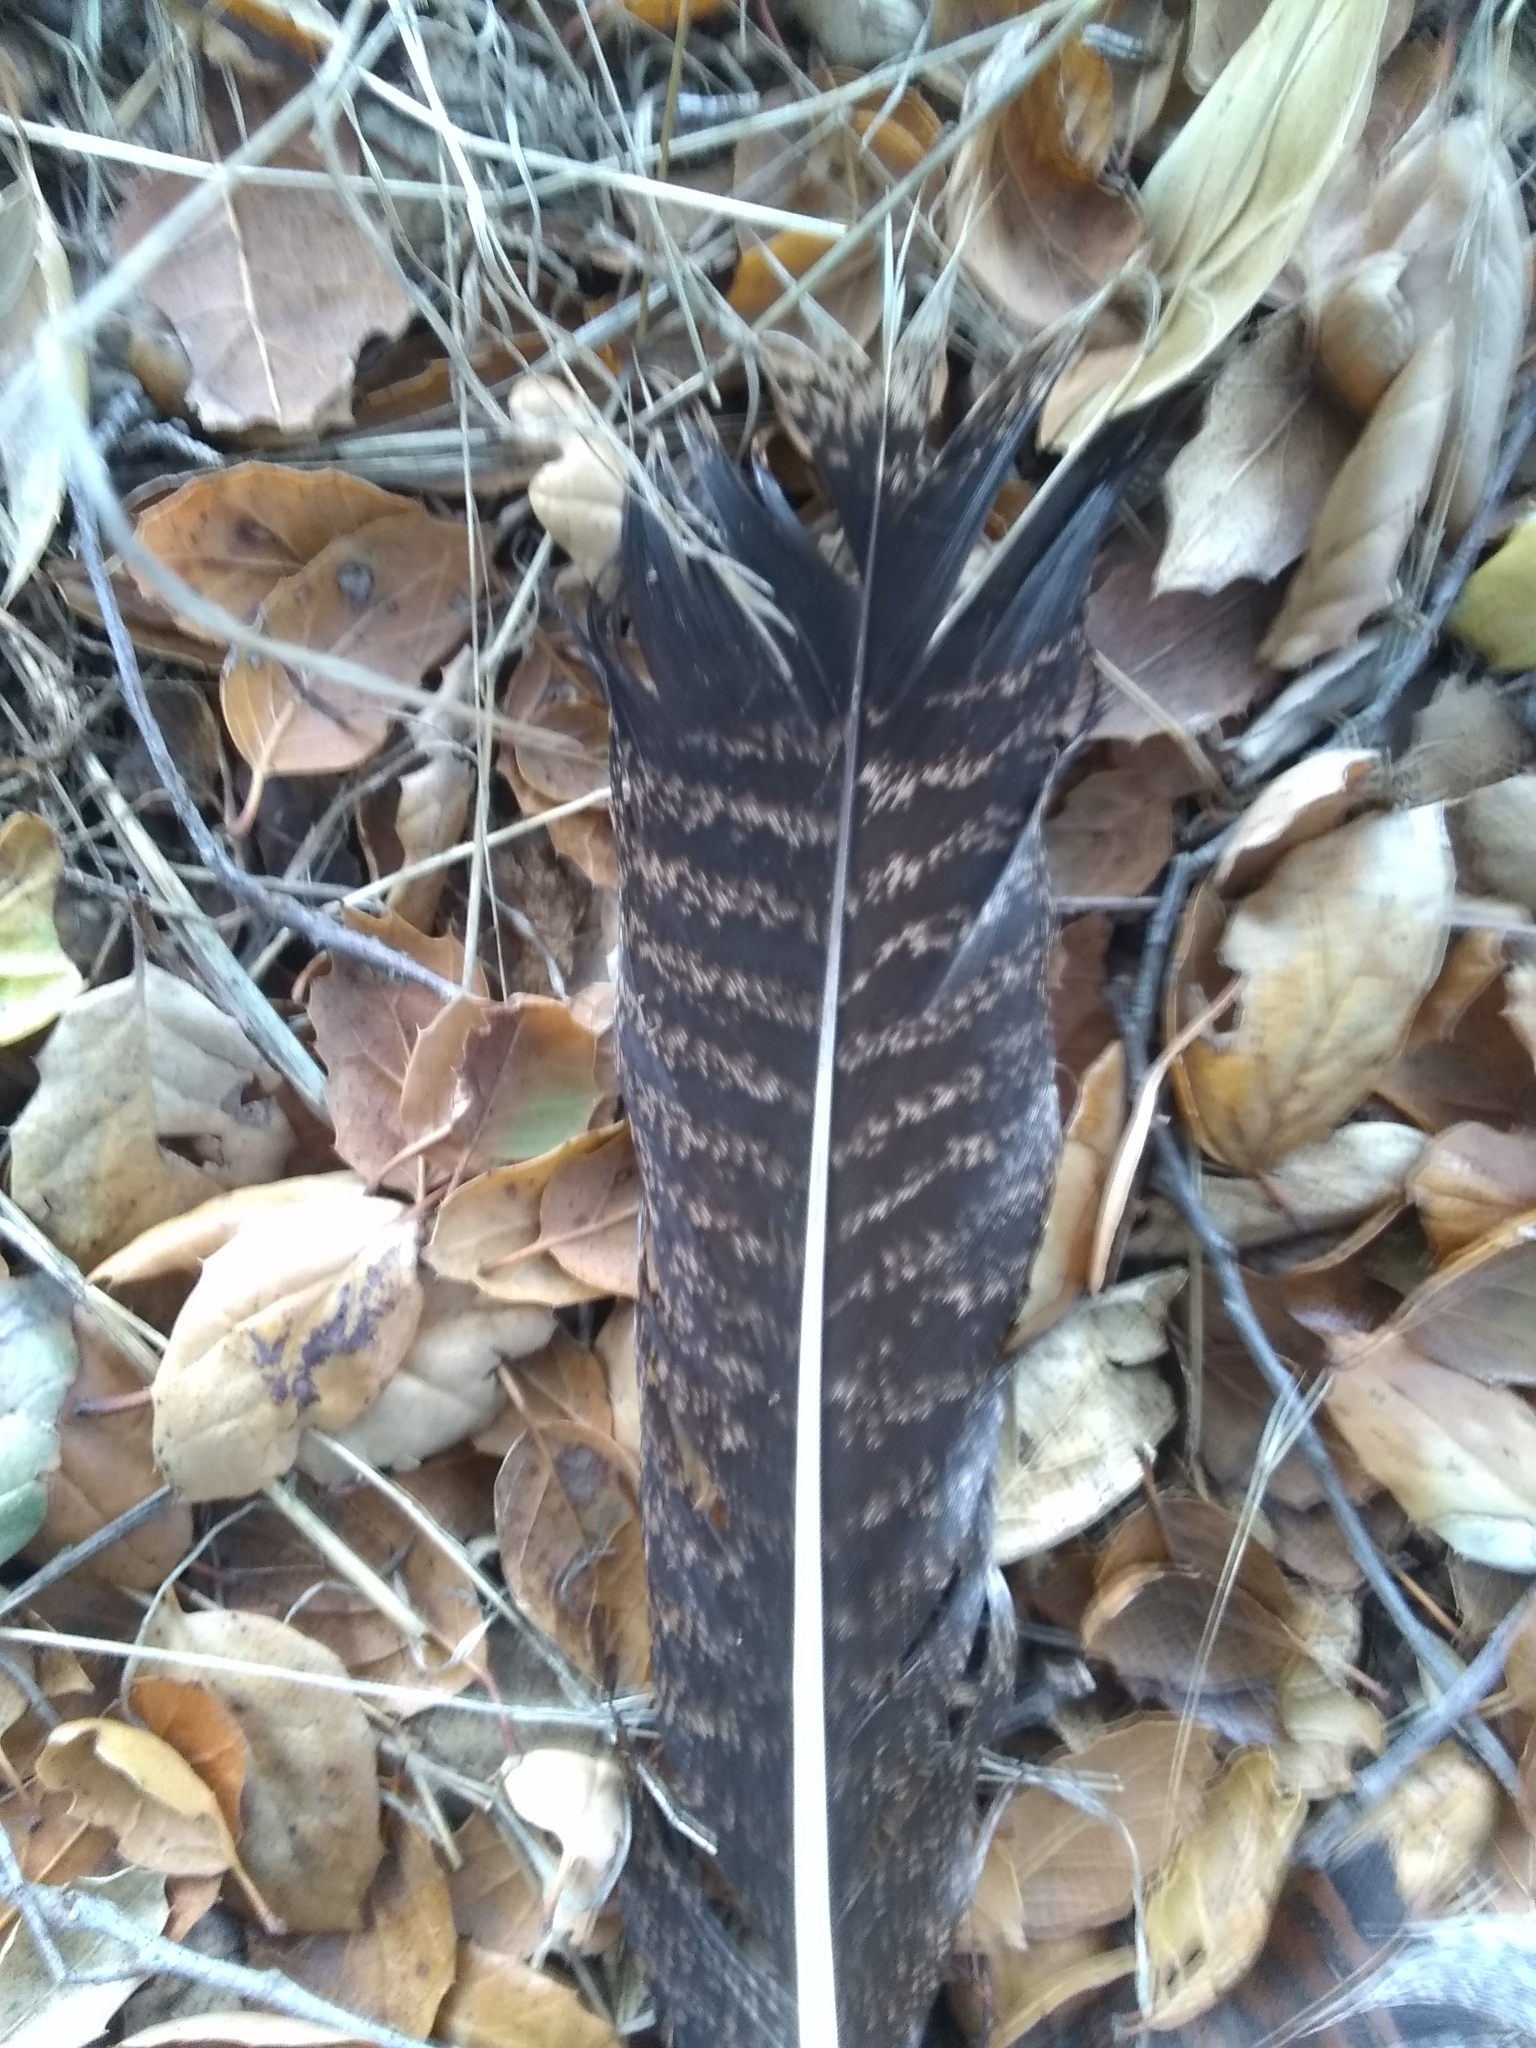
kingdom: Animalia
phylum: Chordata
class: Aves
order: Galliformes
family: Phasianidae
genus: Meleagris
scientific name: Meleagris gallopavo
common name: Wild turkey
